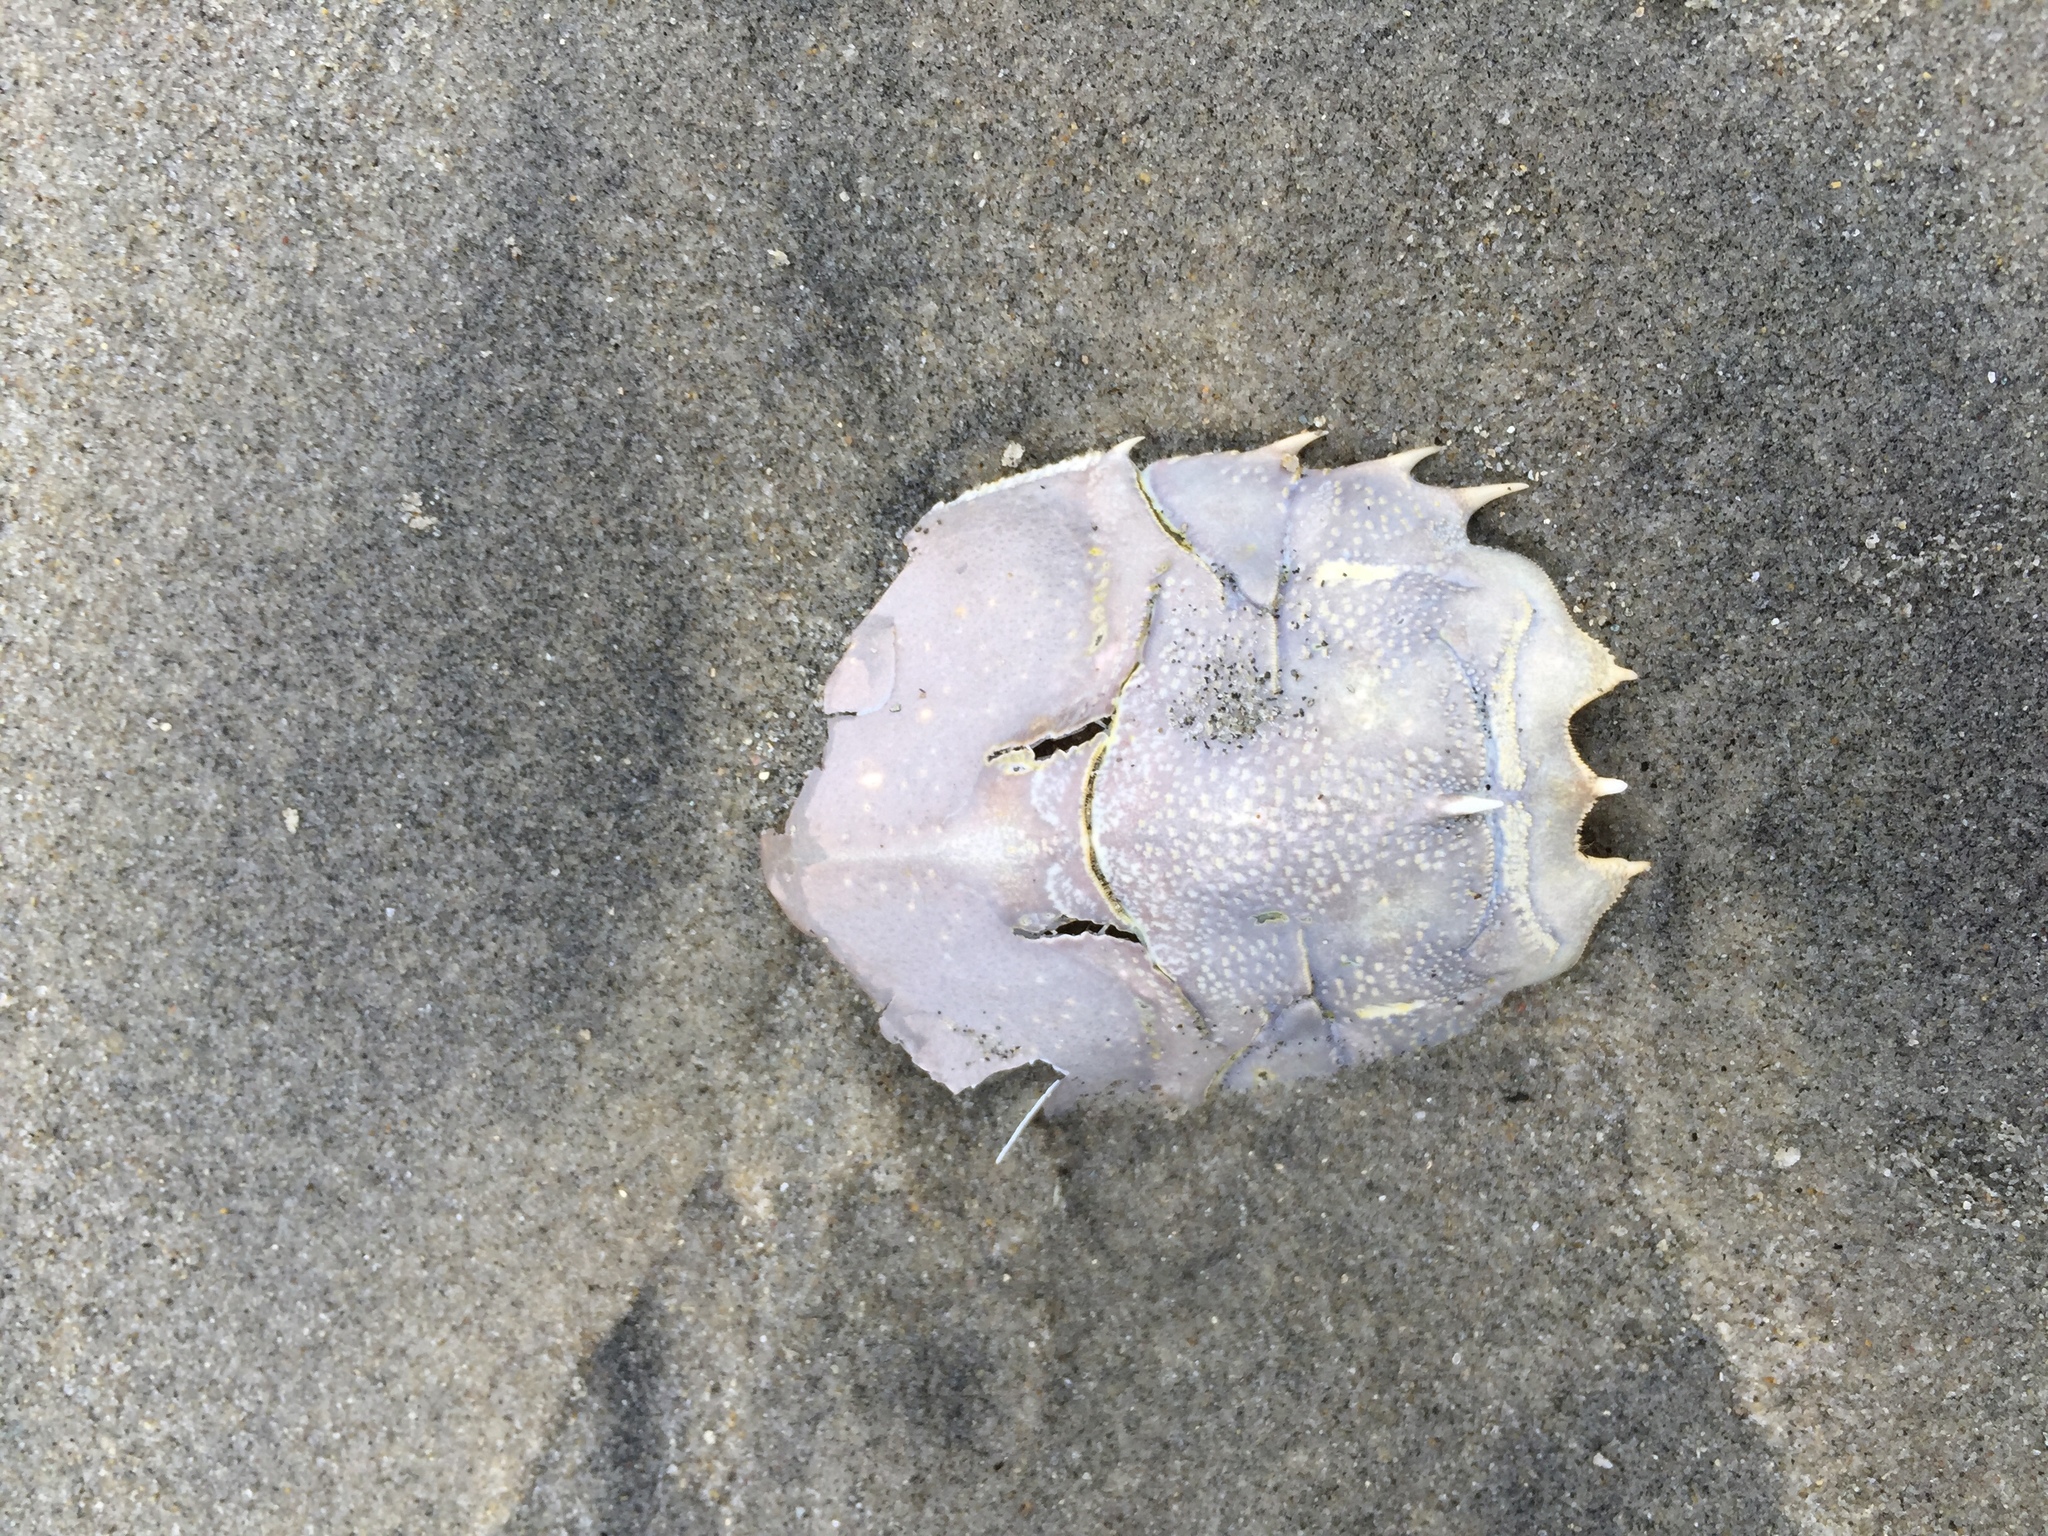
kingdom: Animalia
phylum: Arthropoda
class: Malacostraca
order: Decapoda
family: Blepharipodidae
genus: Blepharipoda
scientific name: Blepharipoda occidentalis
